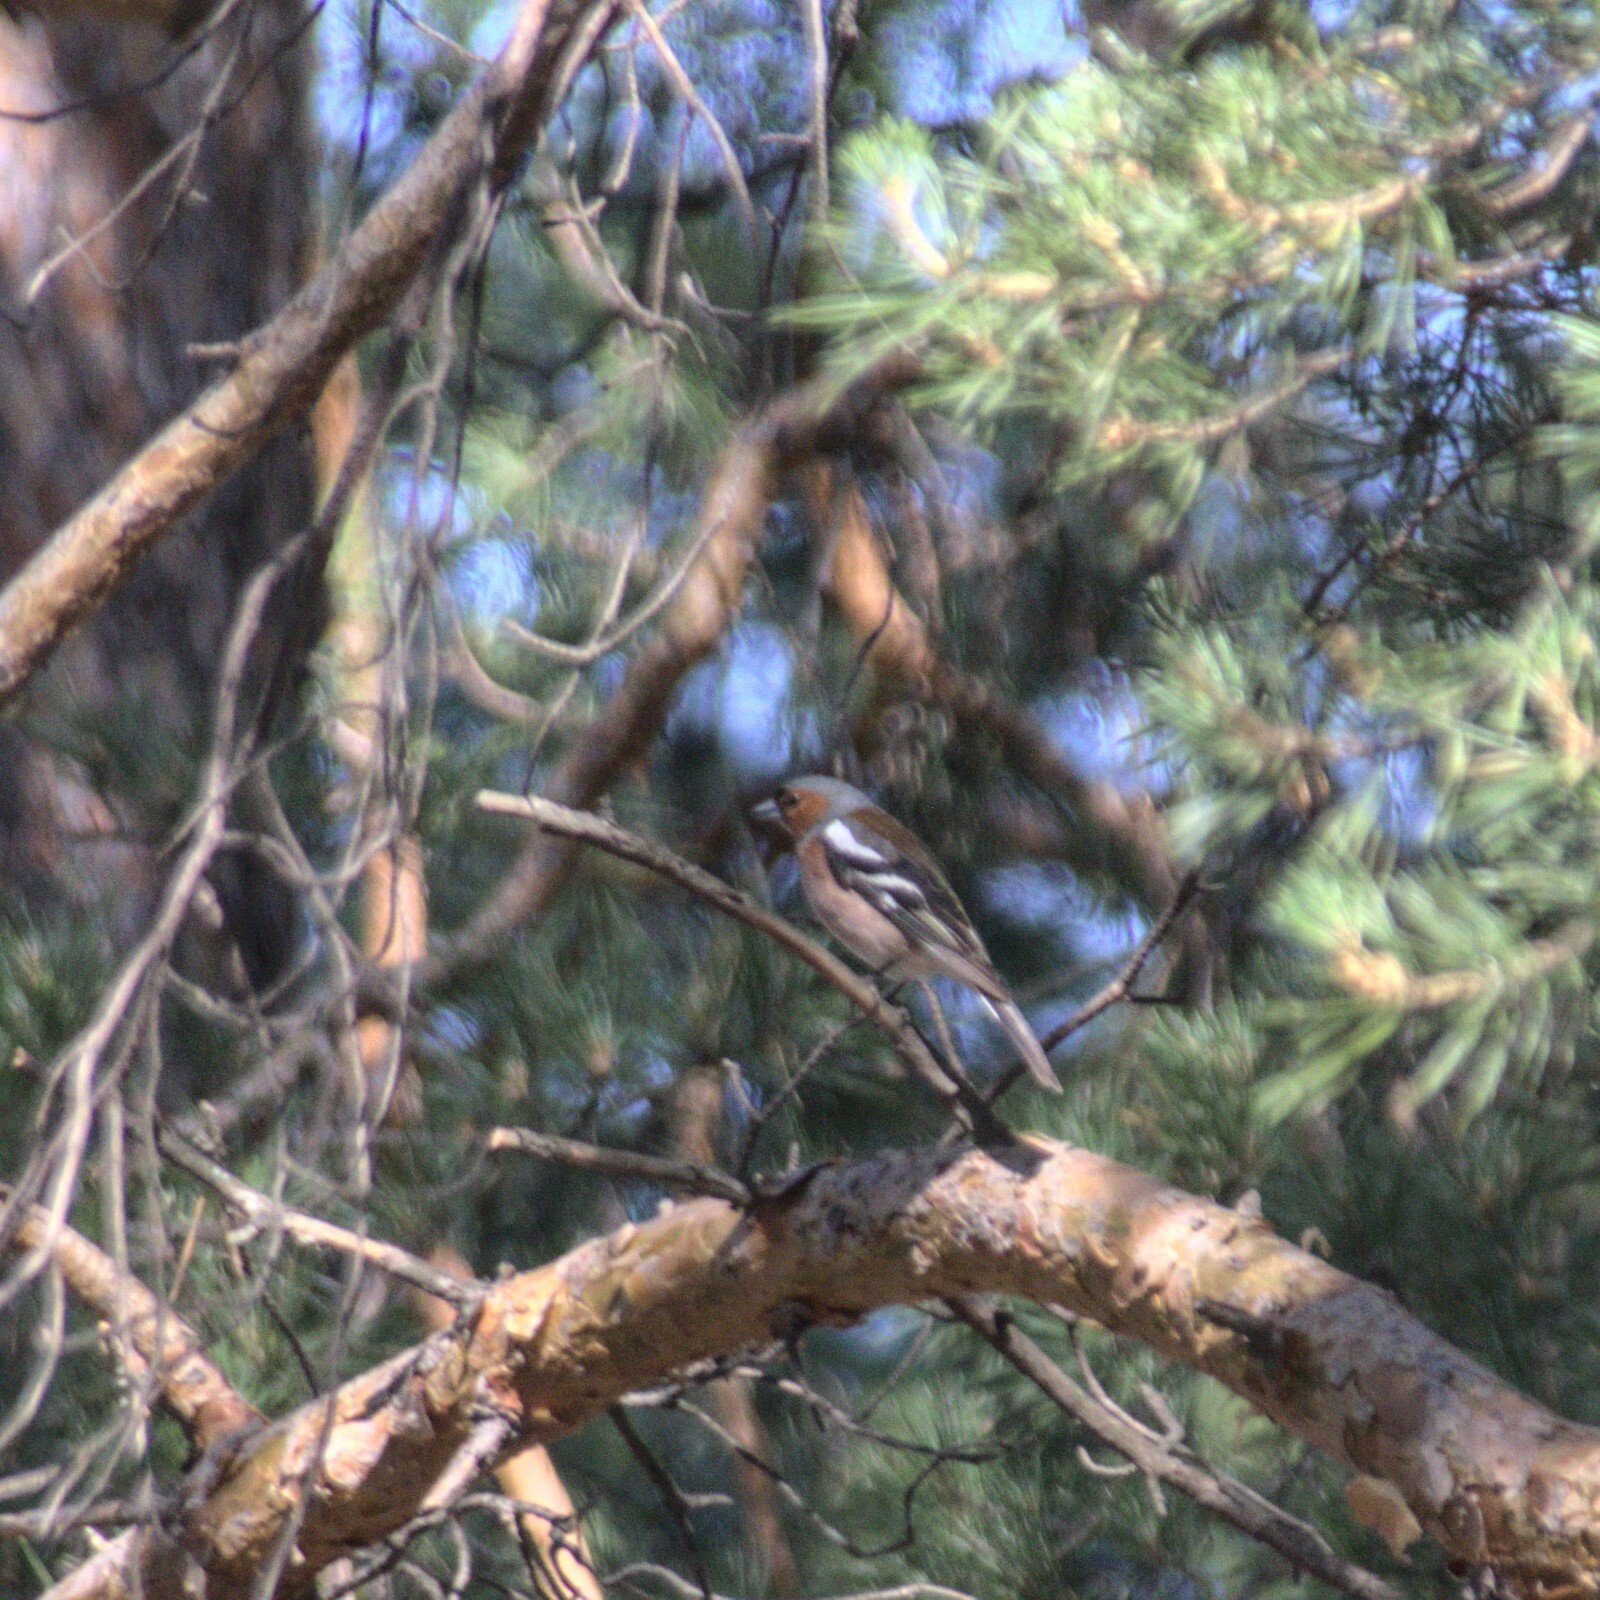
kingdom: Animalia
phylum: Chordata
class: Aves
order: Passeriformes
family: Fringillidae
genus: Fringilla
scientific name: Fringilla coelebs
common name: Common chaffinch
